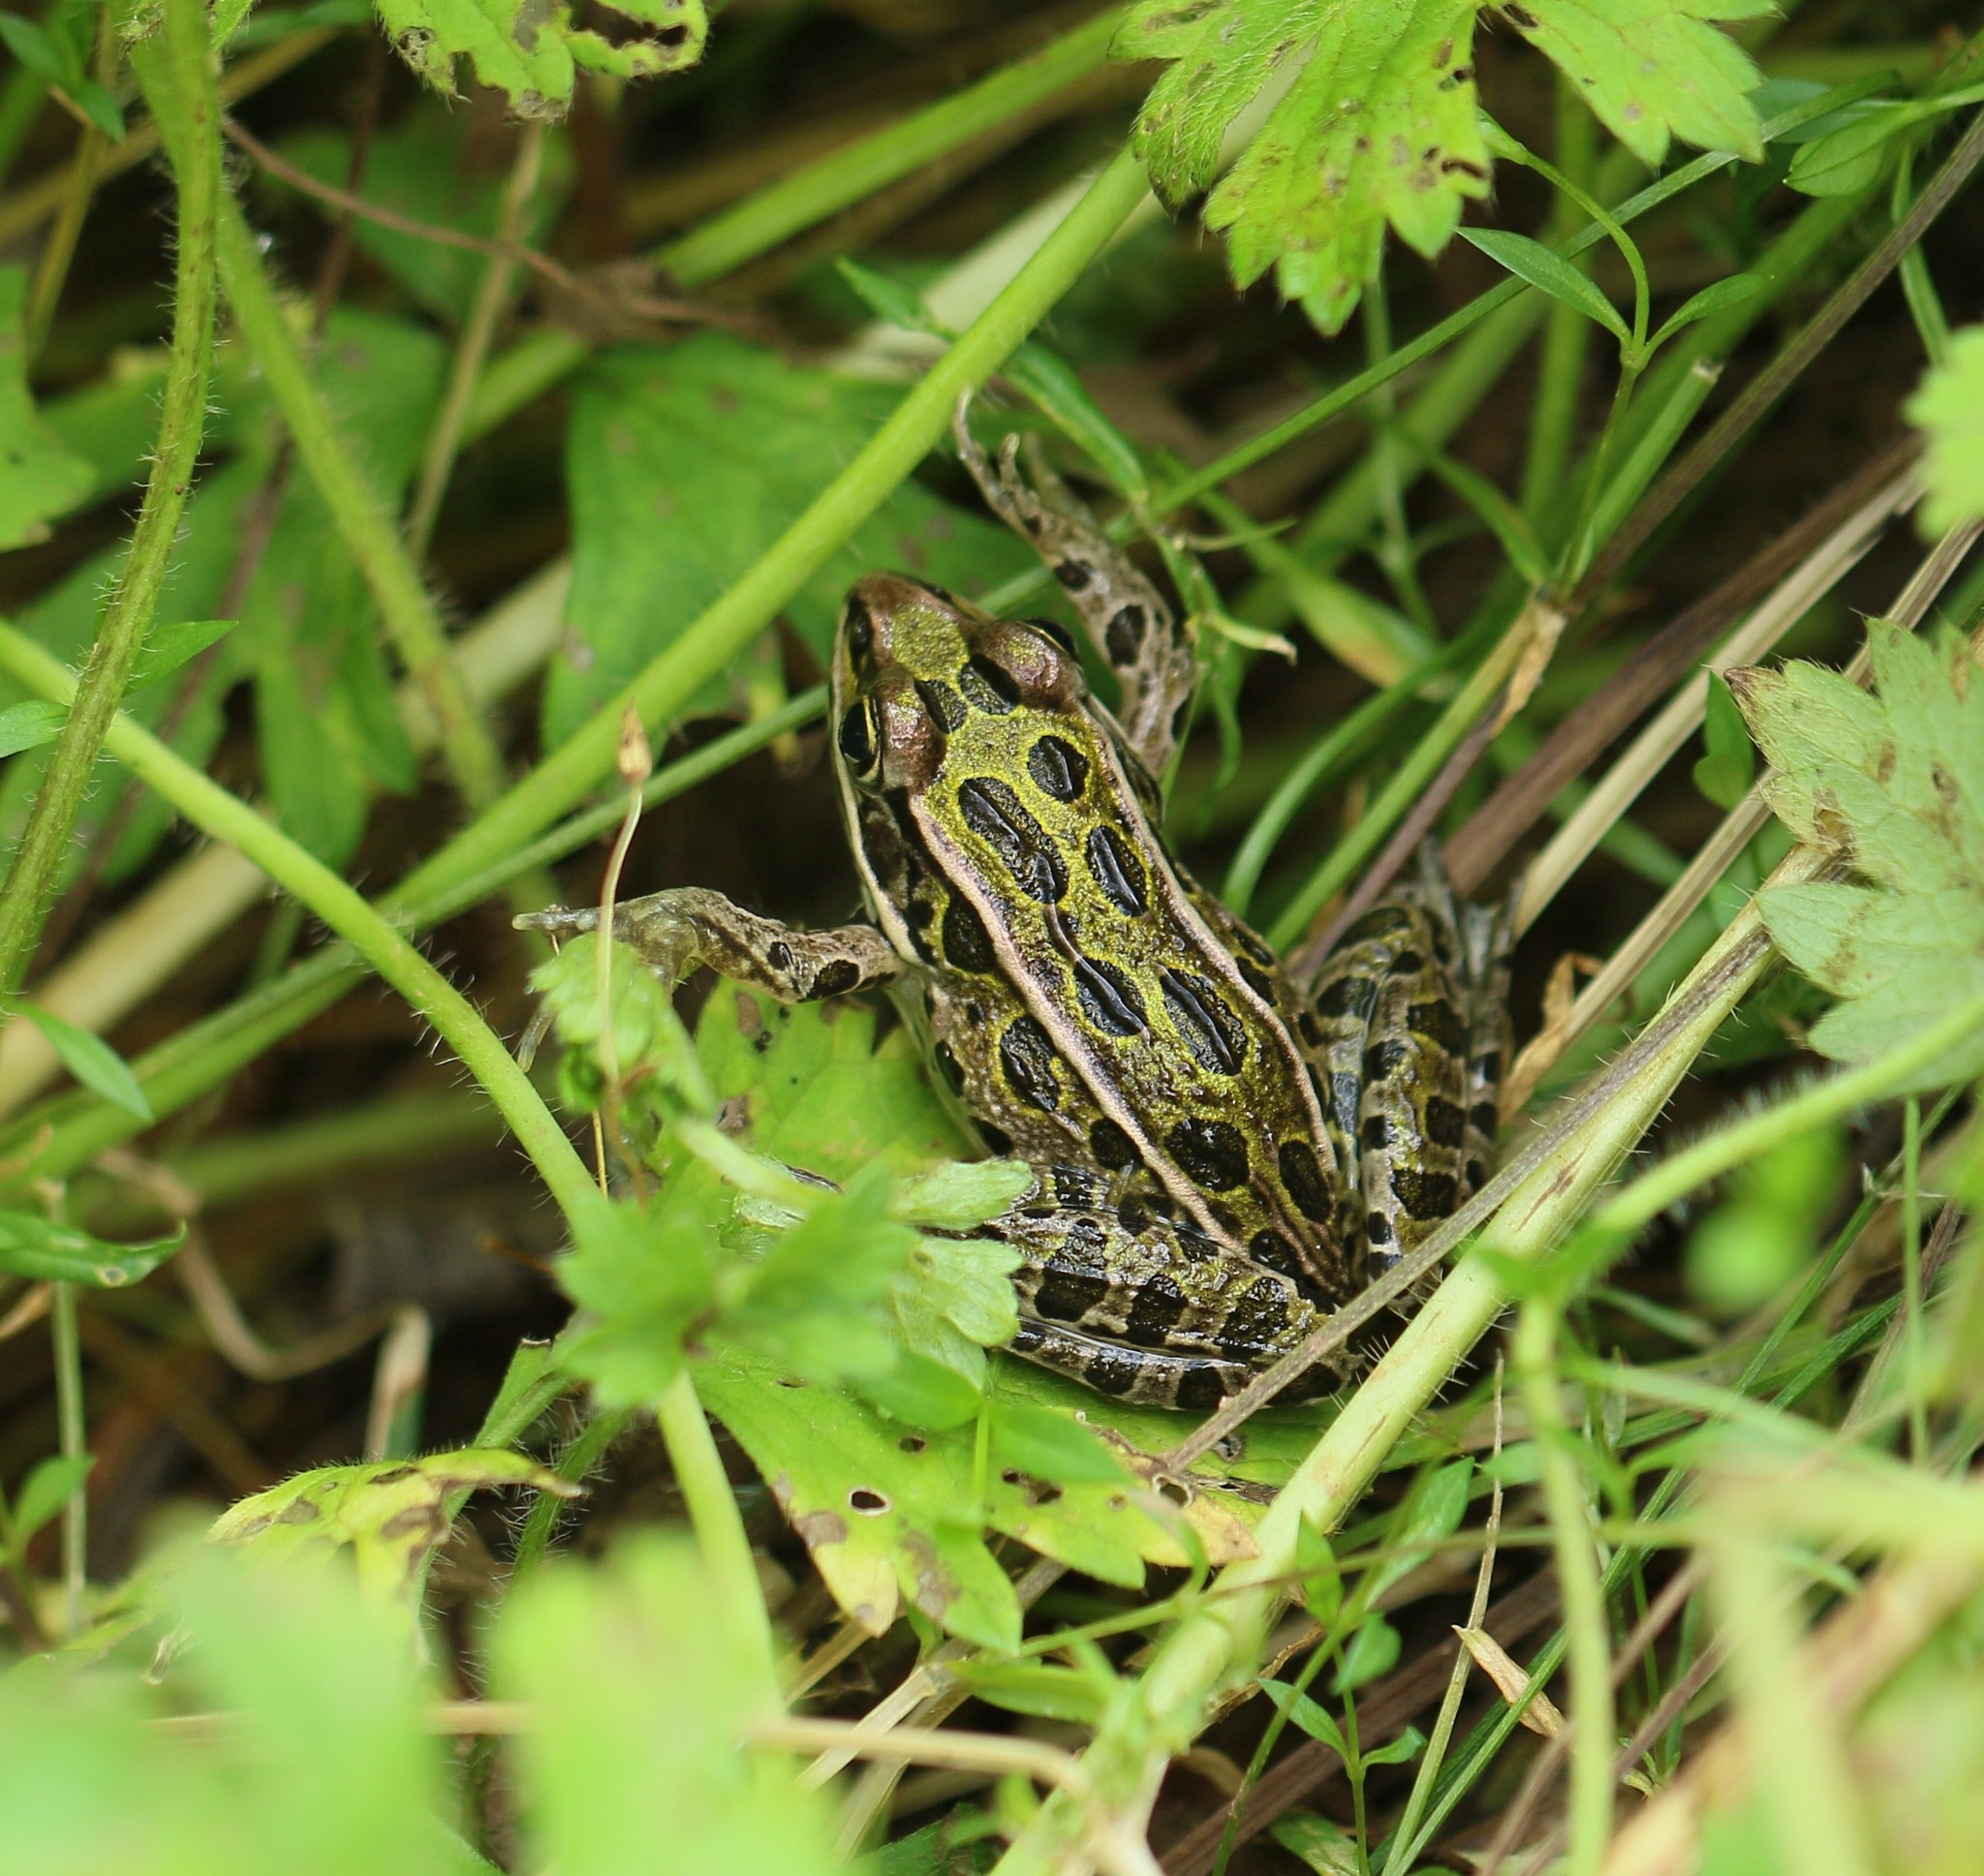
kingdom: Animalia
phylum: Chordata
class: Amphibia
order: Anura
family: Ranidae
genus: Lithobates
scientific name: Lithobates pipiens
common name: Northern leopard frog
